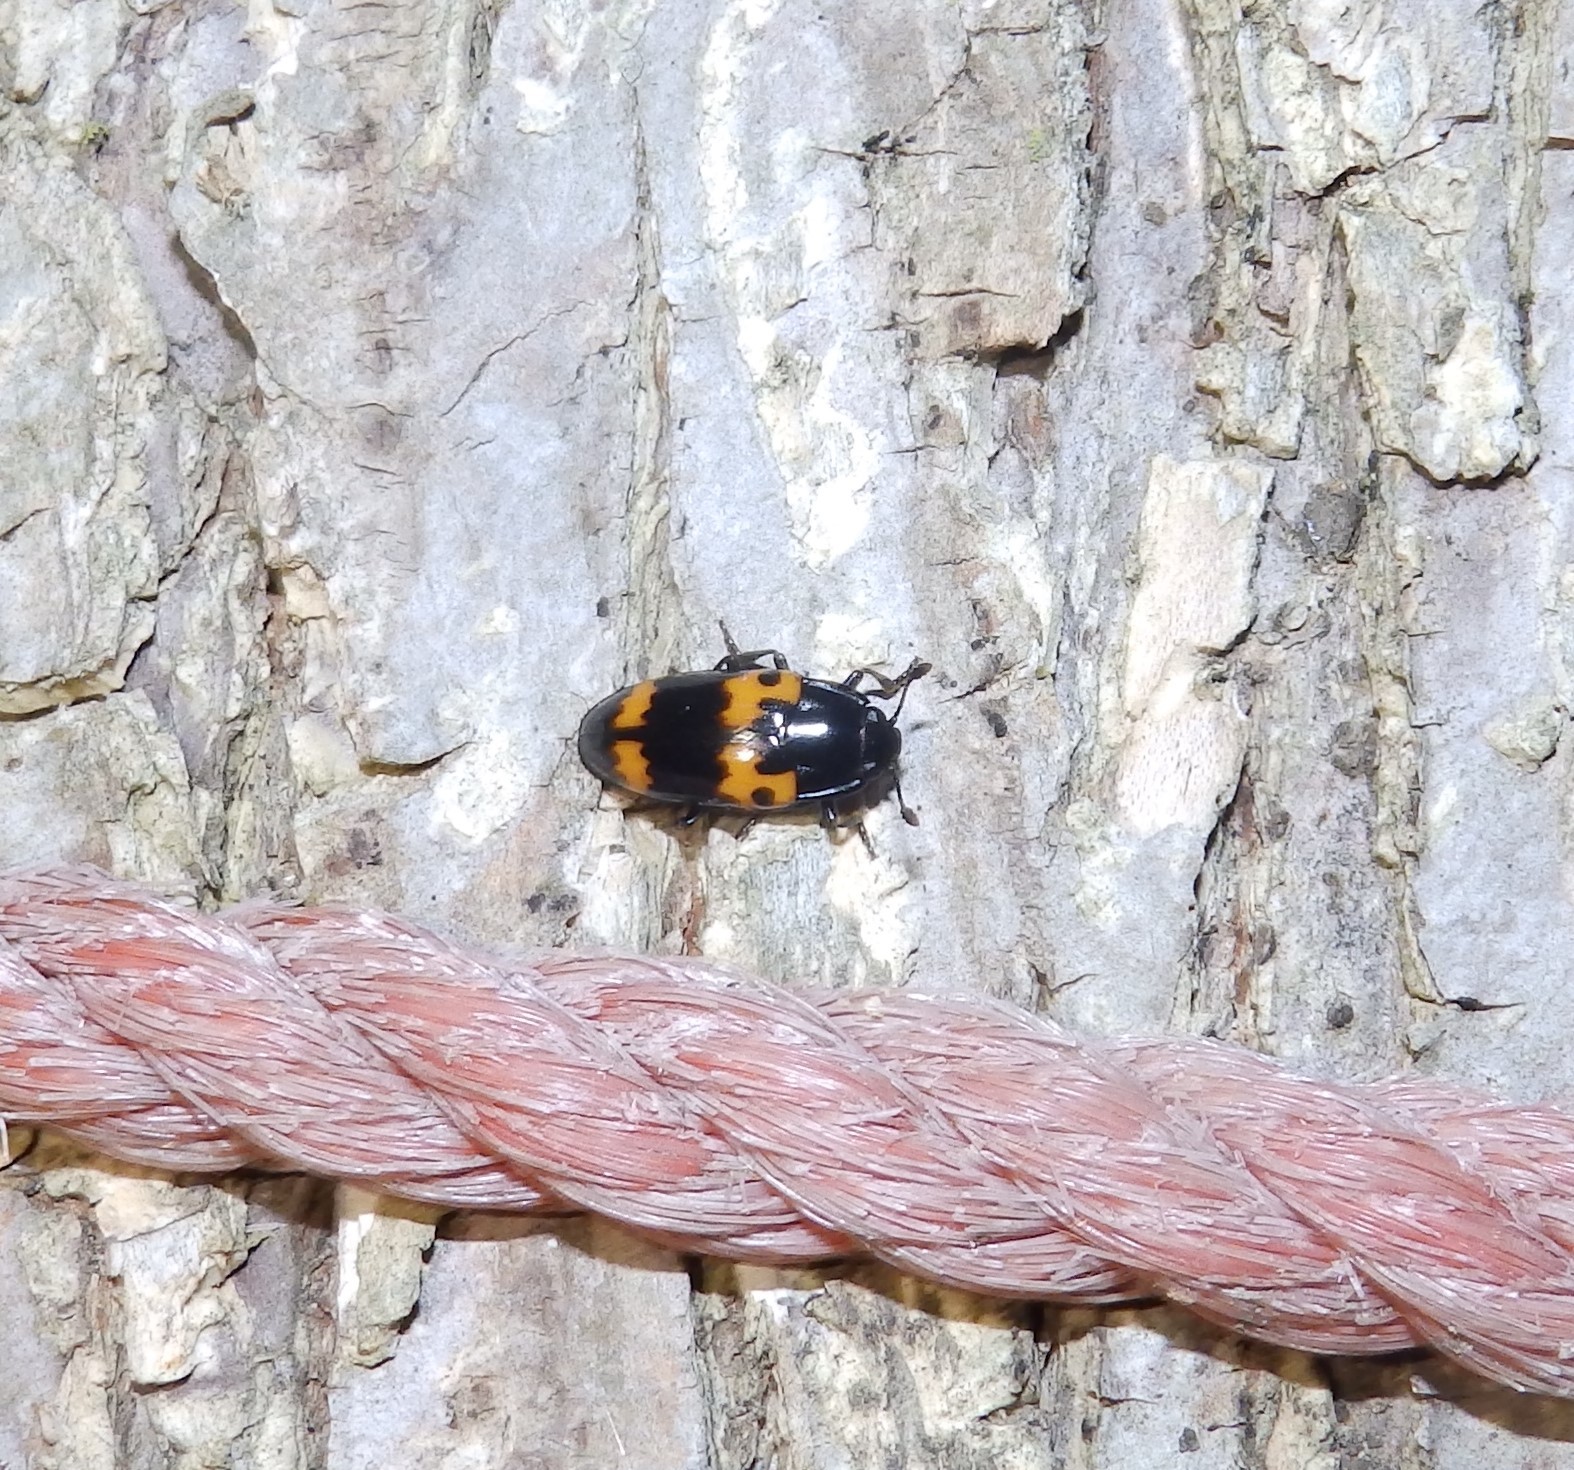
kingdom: Animalia
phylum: Arthropoda
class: Insecta
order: Coleoptera
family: Erotylidae
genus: Megalodacne
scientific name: Megalodacne fasciata
